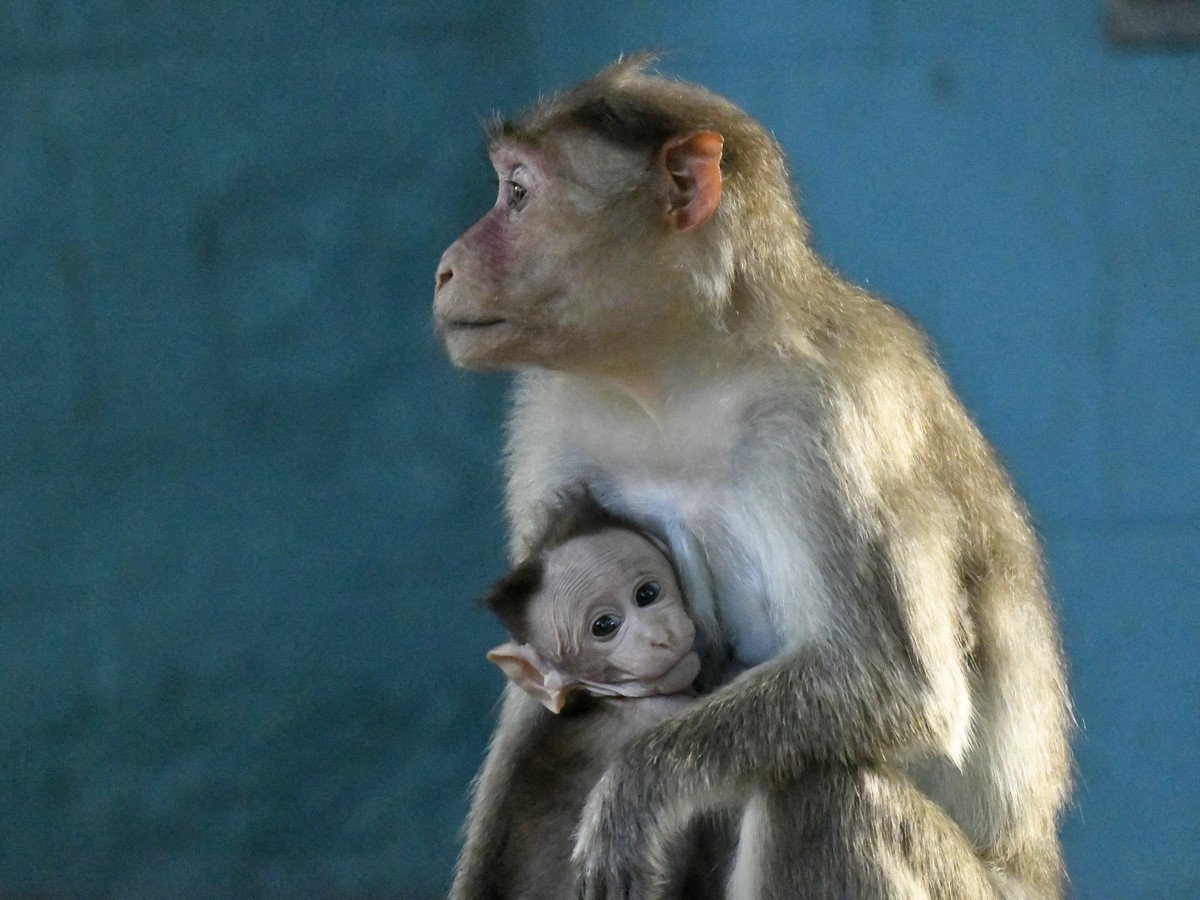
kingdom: Animalia
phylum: Chordata
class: Mammalia
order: Primates
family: Cercopithecidae
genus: Macaca
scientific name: Macaca radiata
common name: Bonnet macaque
